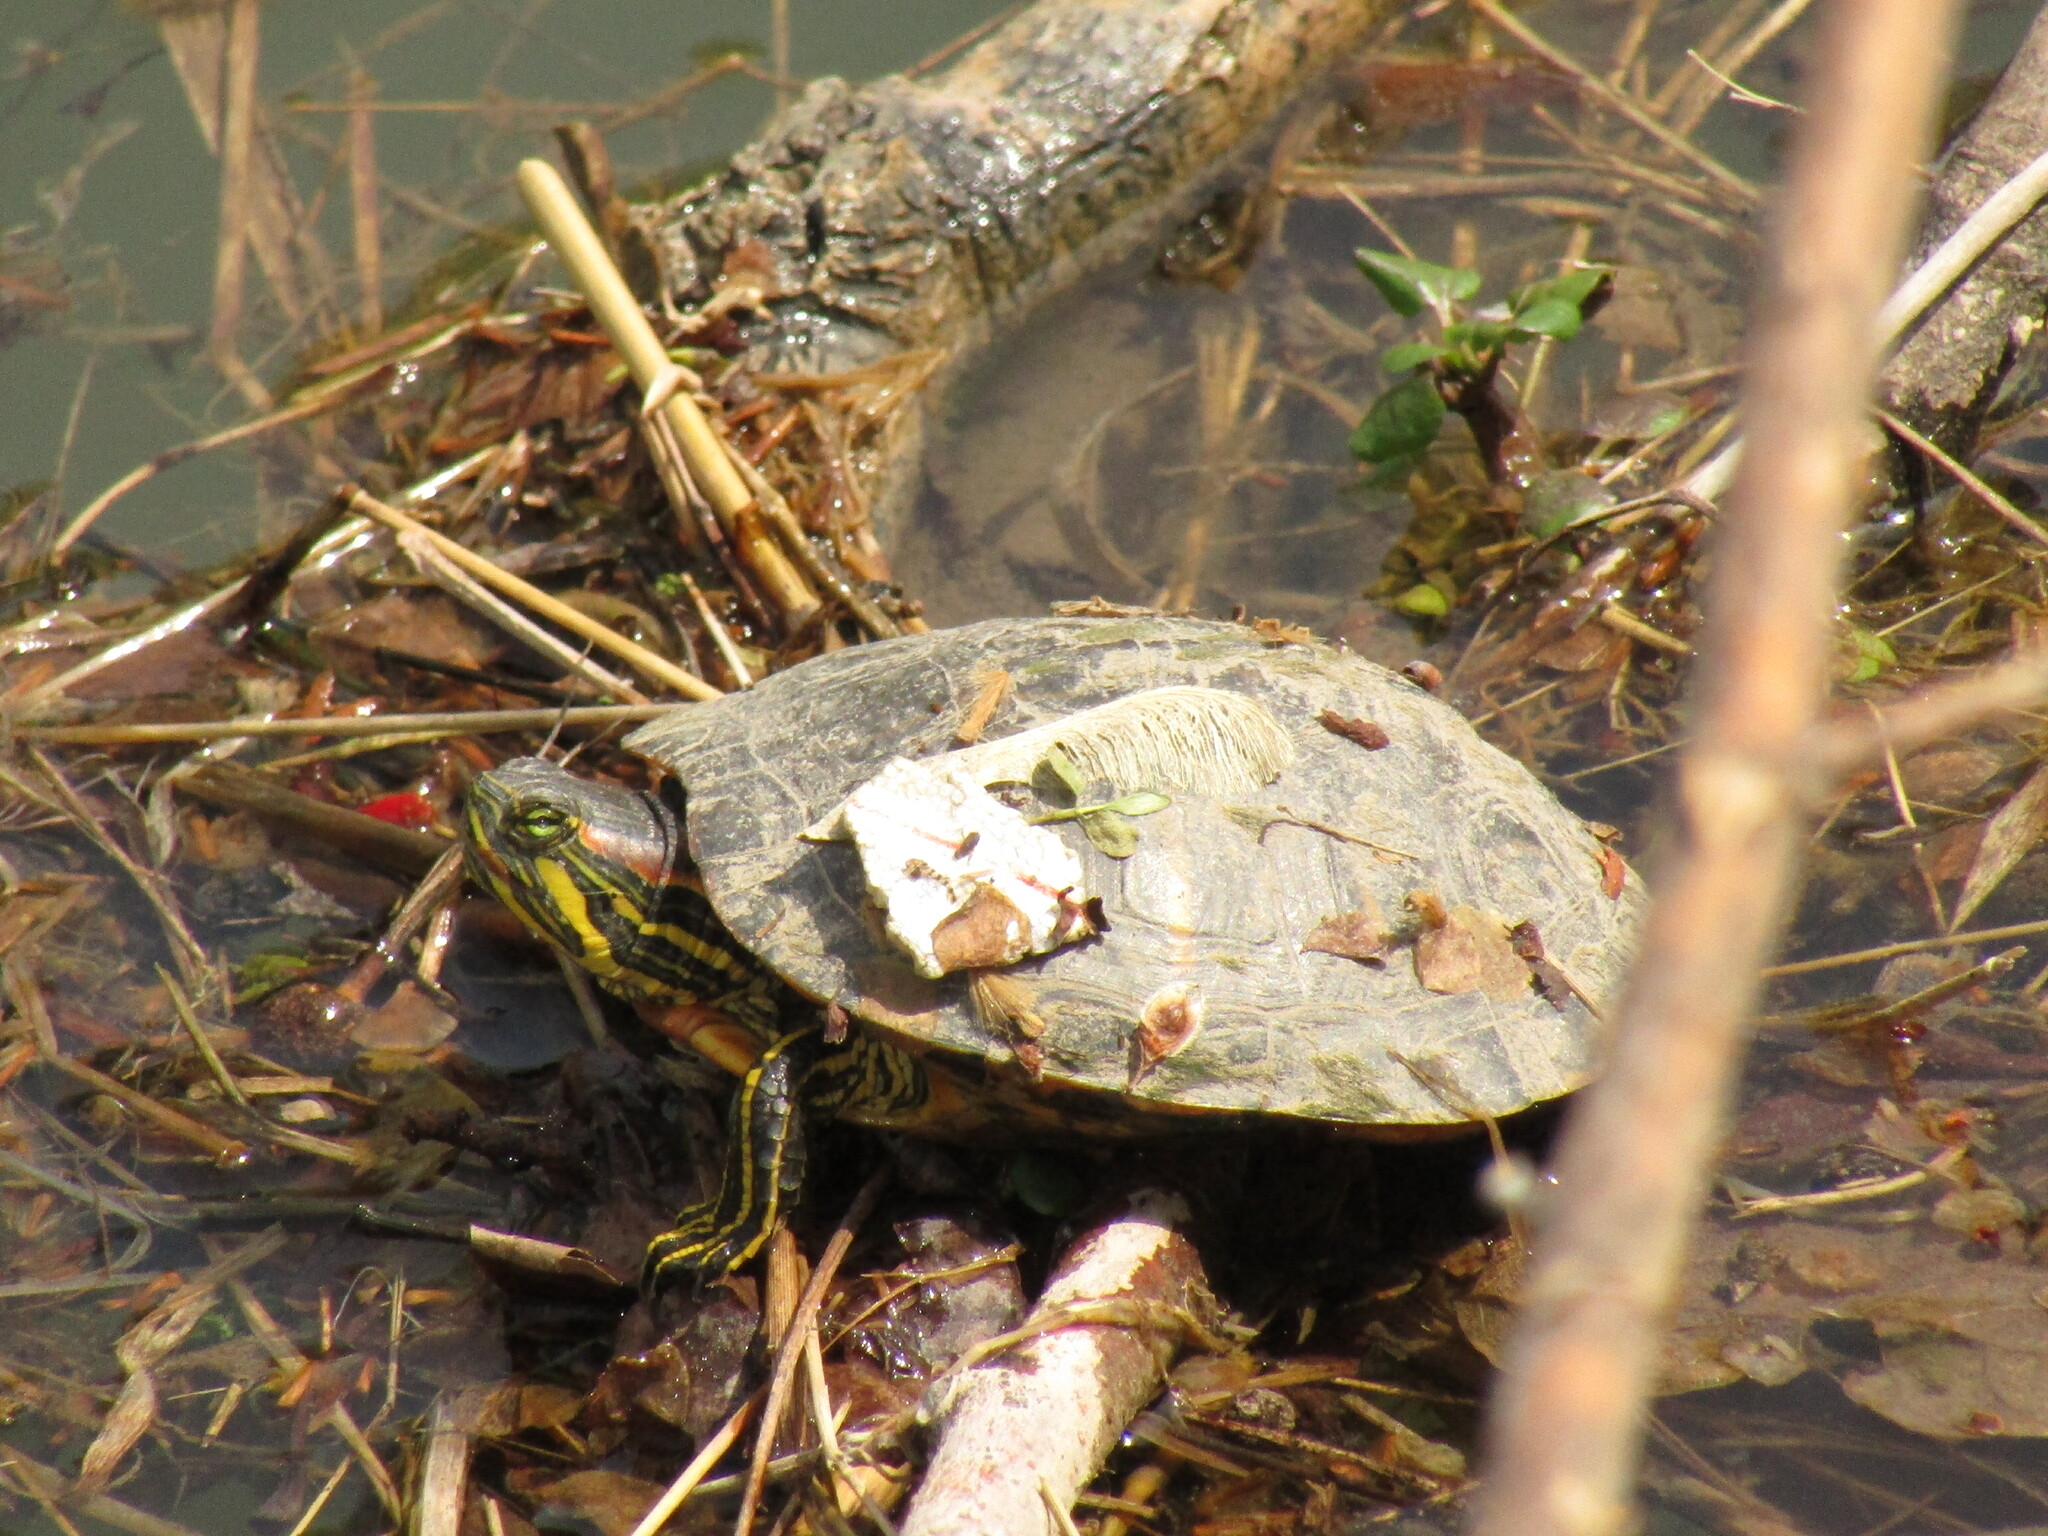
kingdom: Animalia
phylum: Chordata
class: Testudines
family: Emydidae
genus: Trachemys
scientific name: Trachemys scripta
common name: Slider
